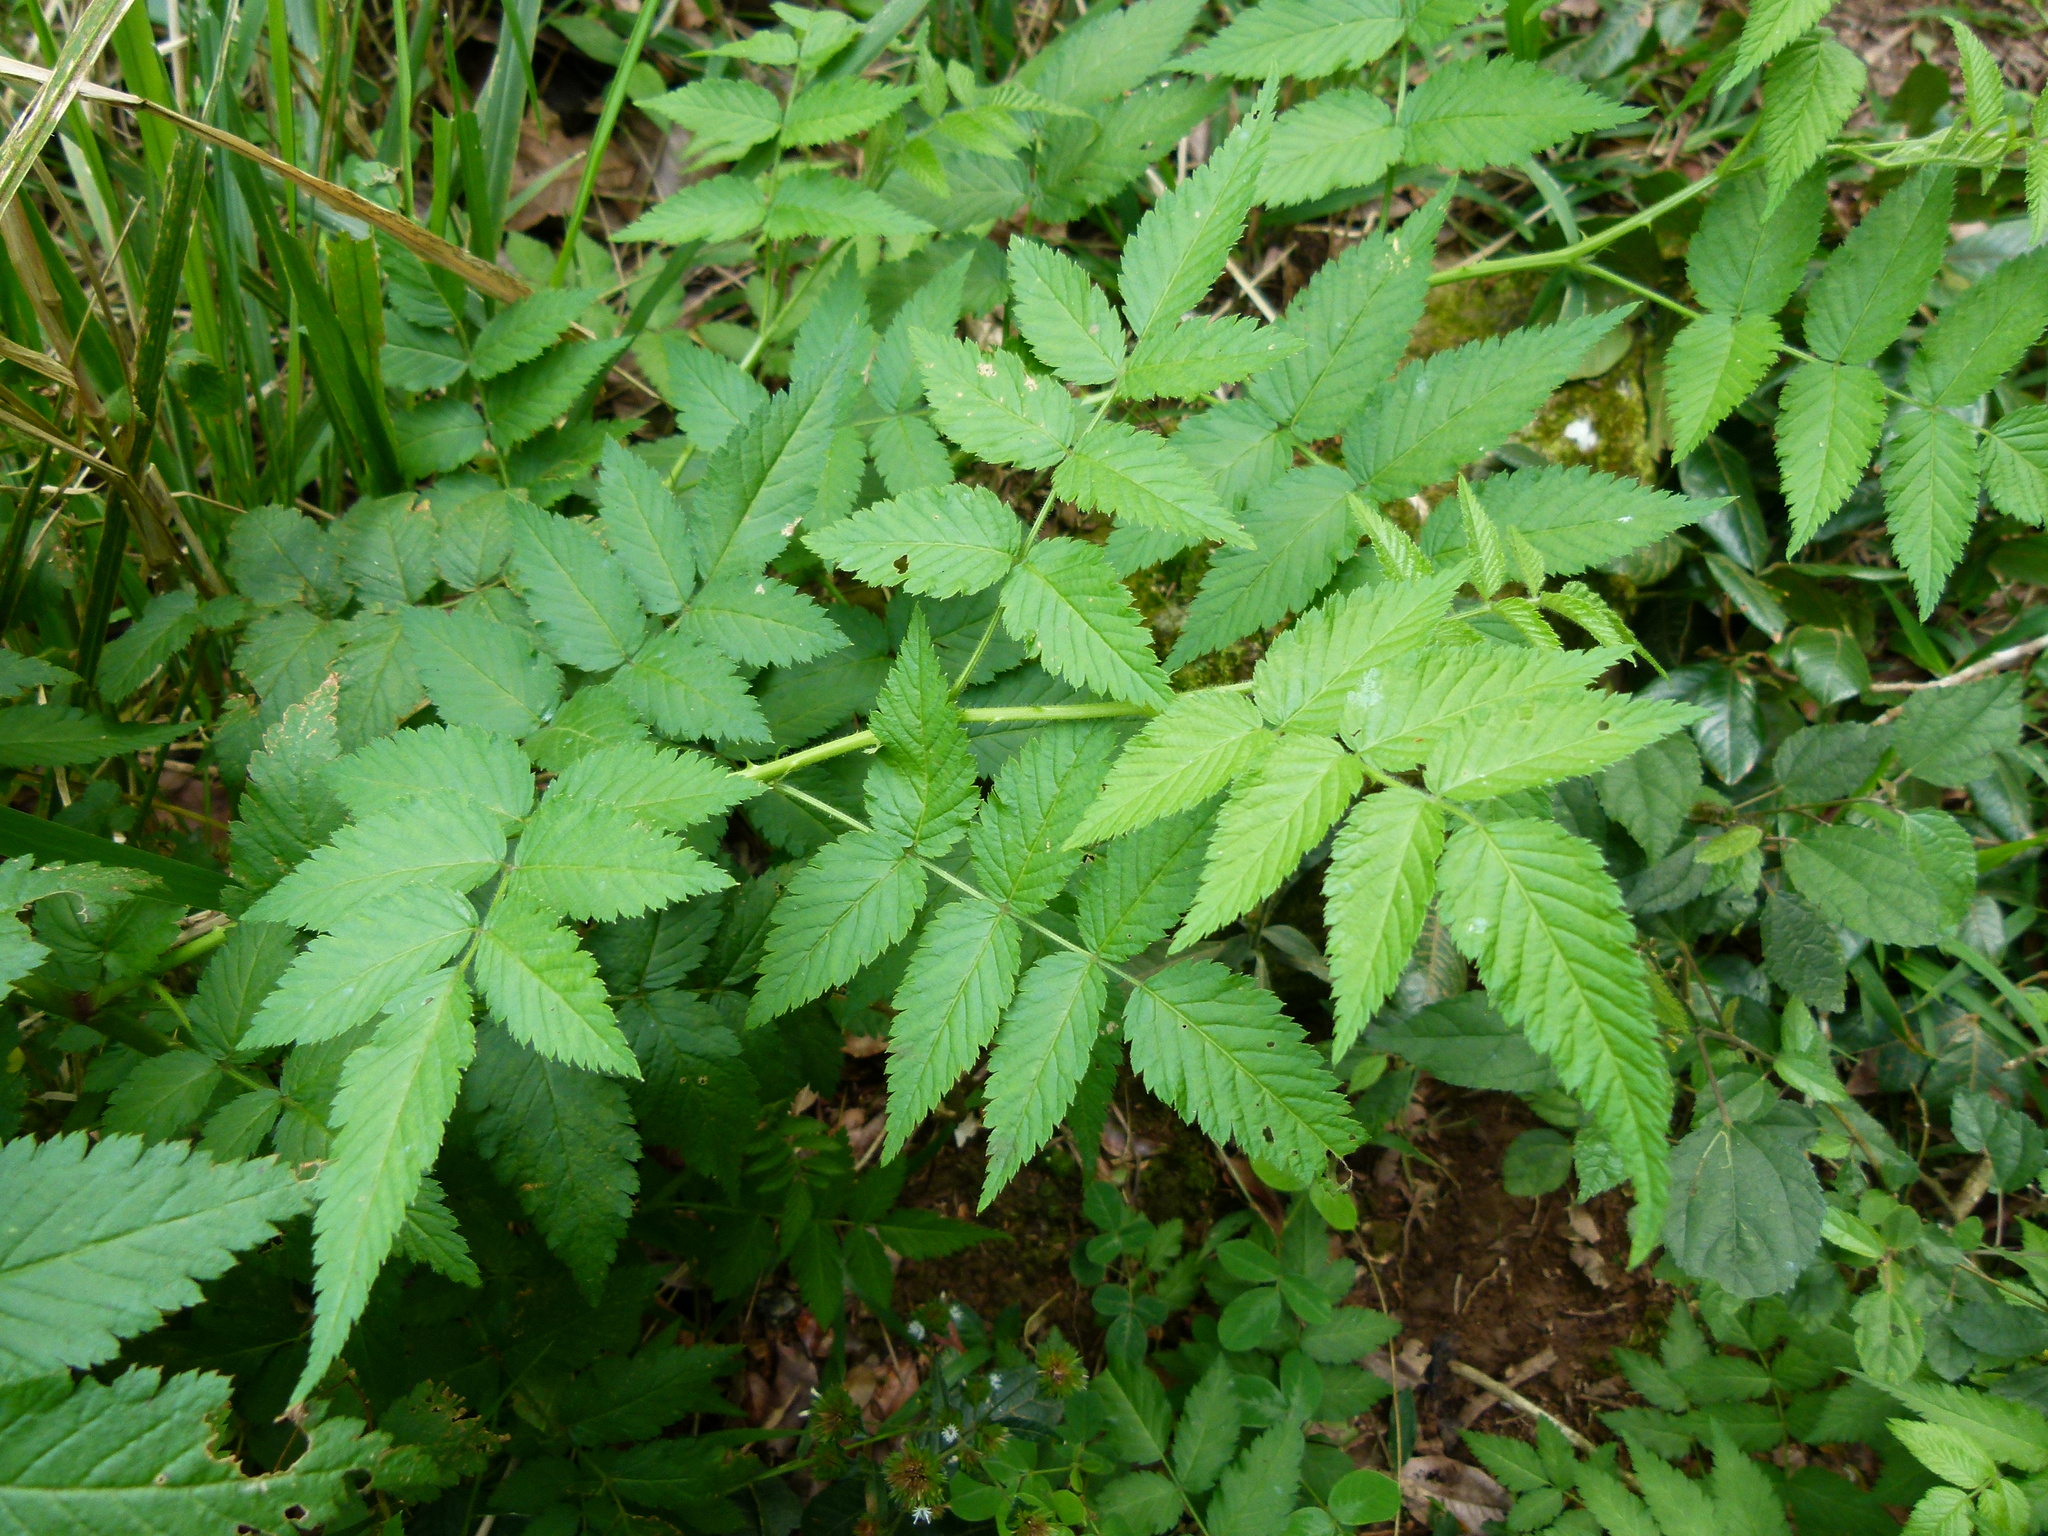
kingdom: Plantae
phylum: Tracheophyta
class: Magnoliopsida
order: Rosales
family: Rosaceae
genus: Rubus
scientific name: Rubus rosifolius
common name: Roseleaf raspberry
